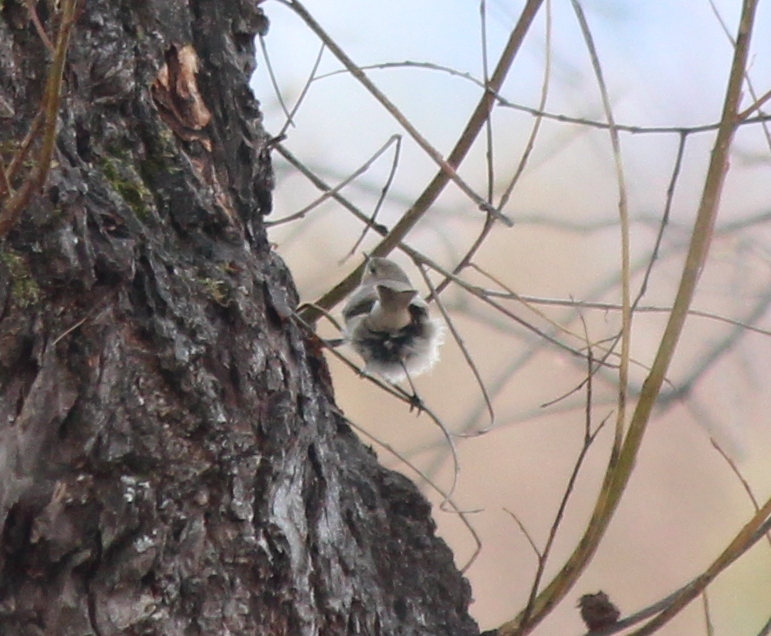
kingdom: Animalia
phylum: Chordata
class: Aves
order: Passeriformes
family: Phylloscopidae
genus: Phylloscopus
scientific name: Phylloscopus collybita
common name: Common chiffchaff
